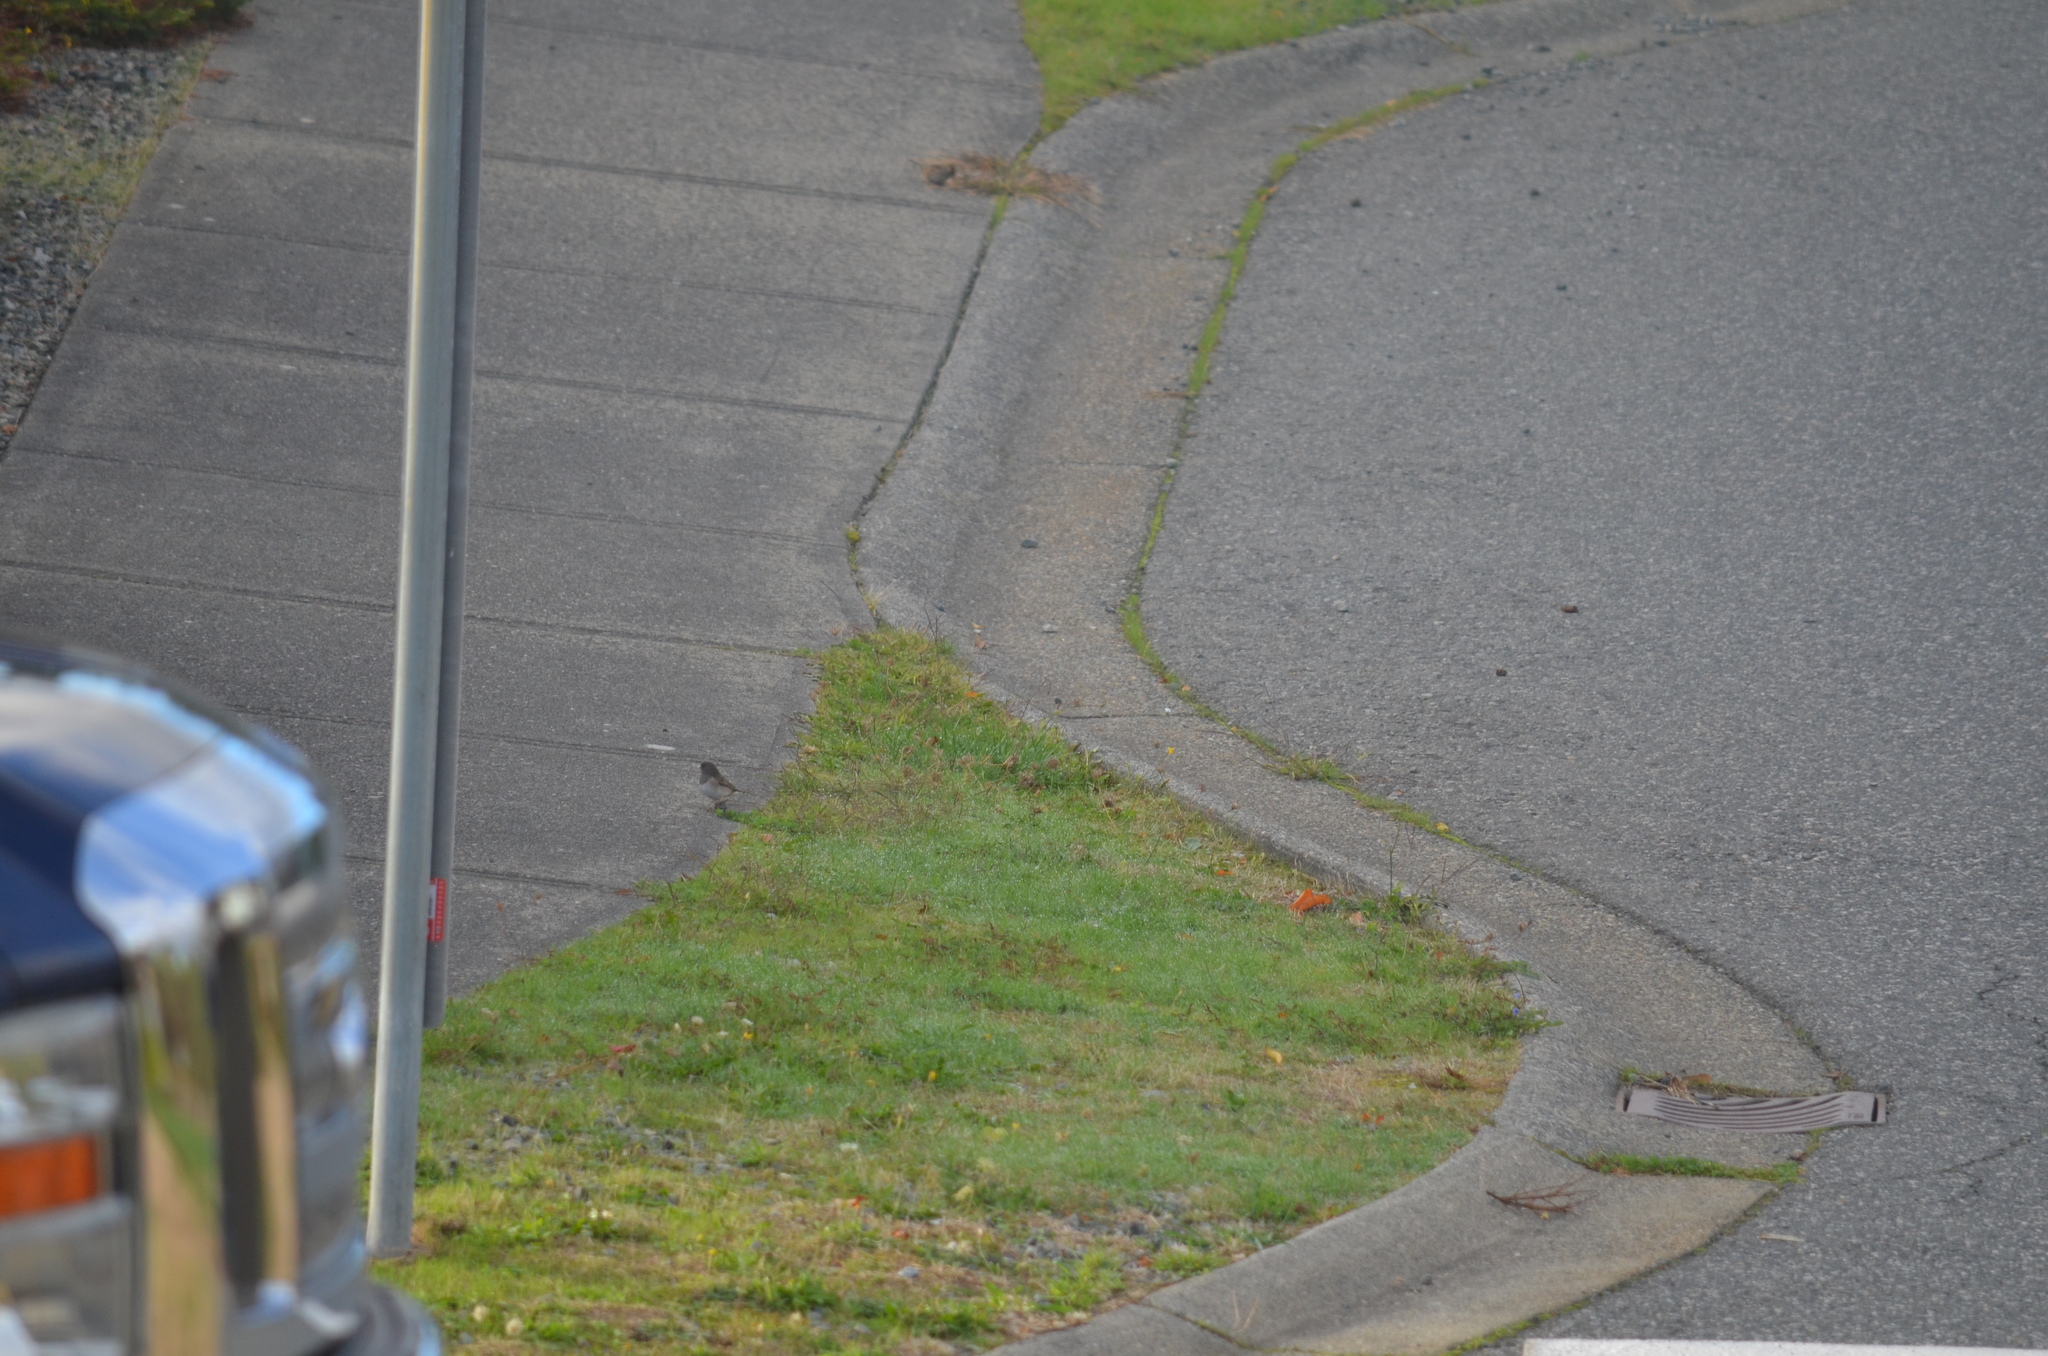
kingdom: Animalia
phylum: Chordata
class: Aves
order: Passeriformes
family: Passerellidae
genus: Junco
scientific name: Junco hyemalis
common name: Dark-eyed junco
